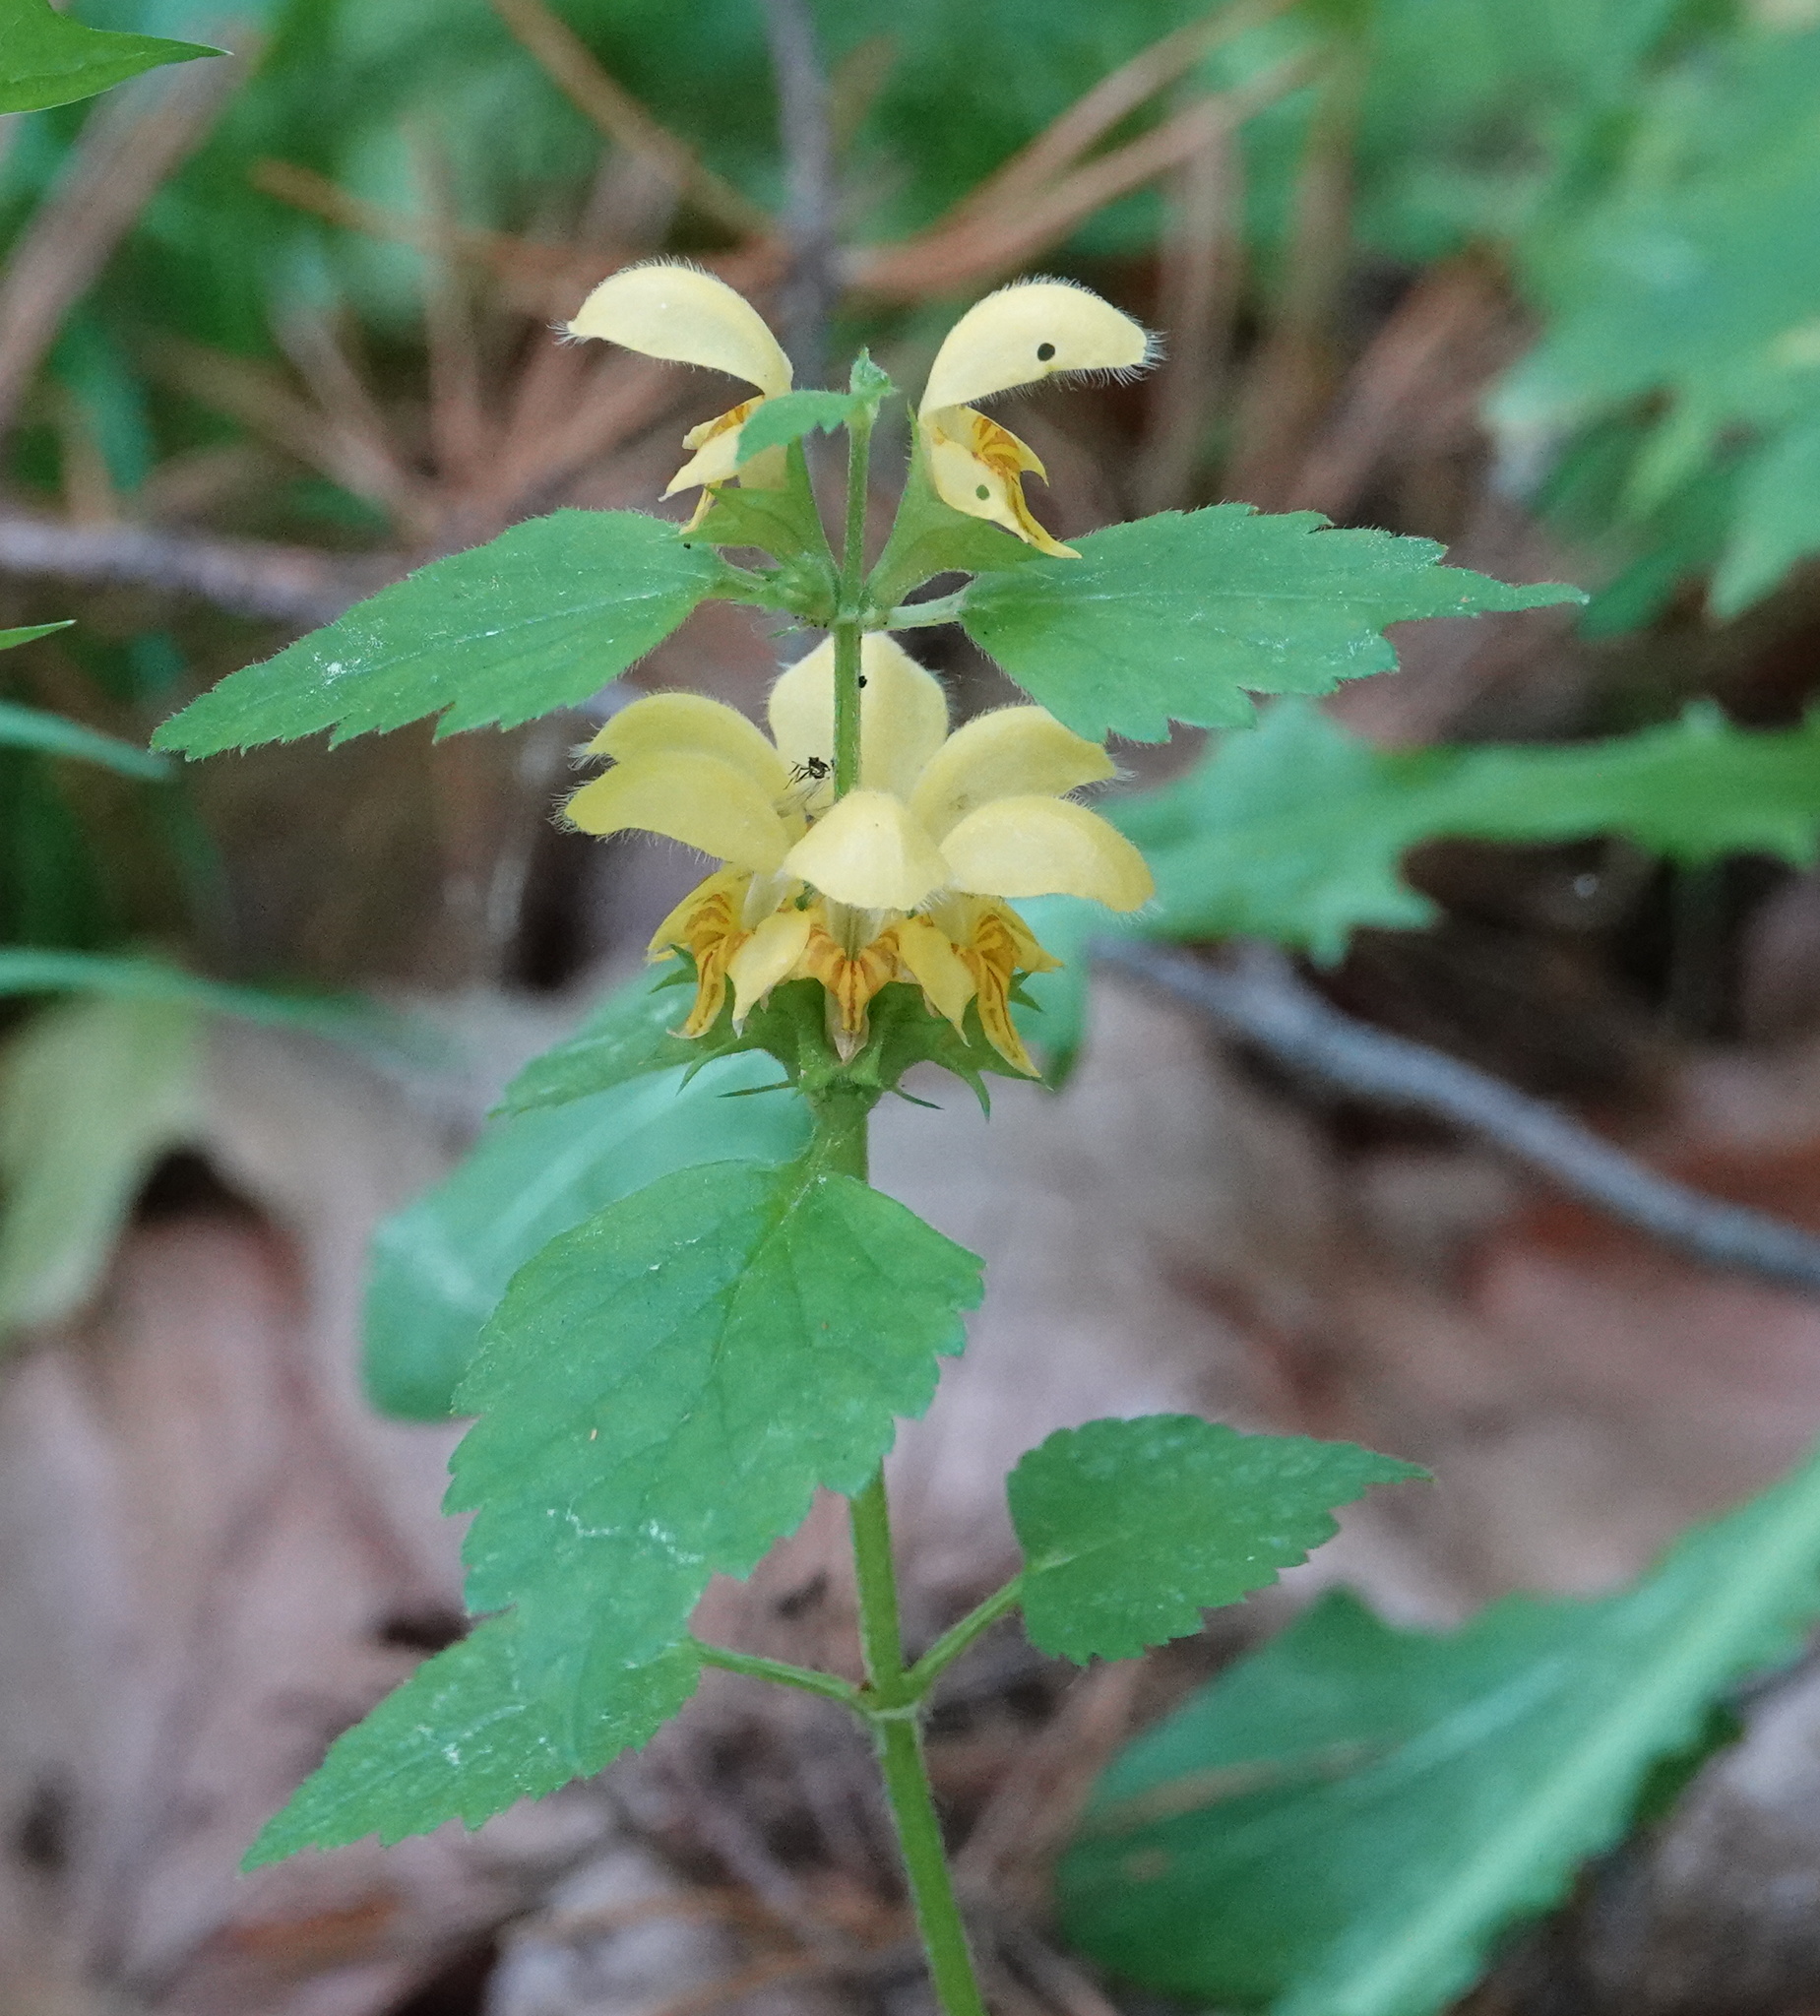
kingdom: Plantae
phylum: Tracheophyta
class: Magnoliopsida
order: Lamiales
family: Lamiaceae
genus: Lamium
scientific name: Lamium galeobdolon
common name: Yellow archangel
